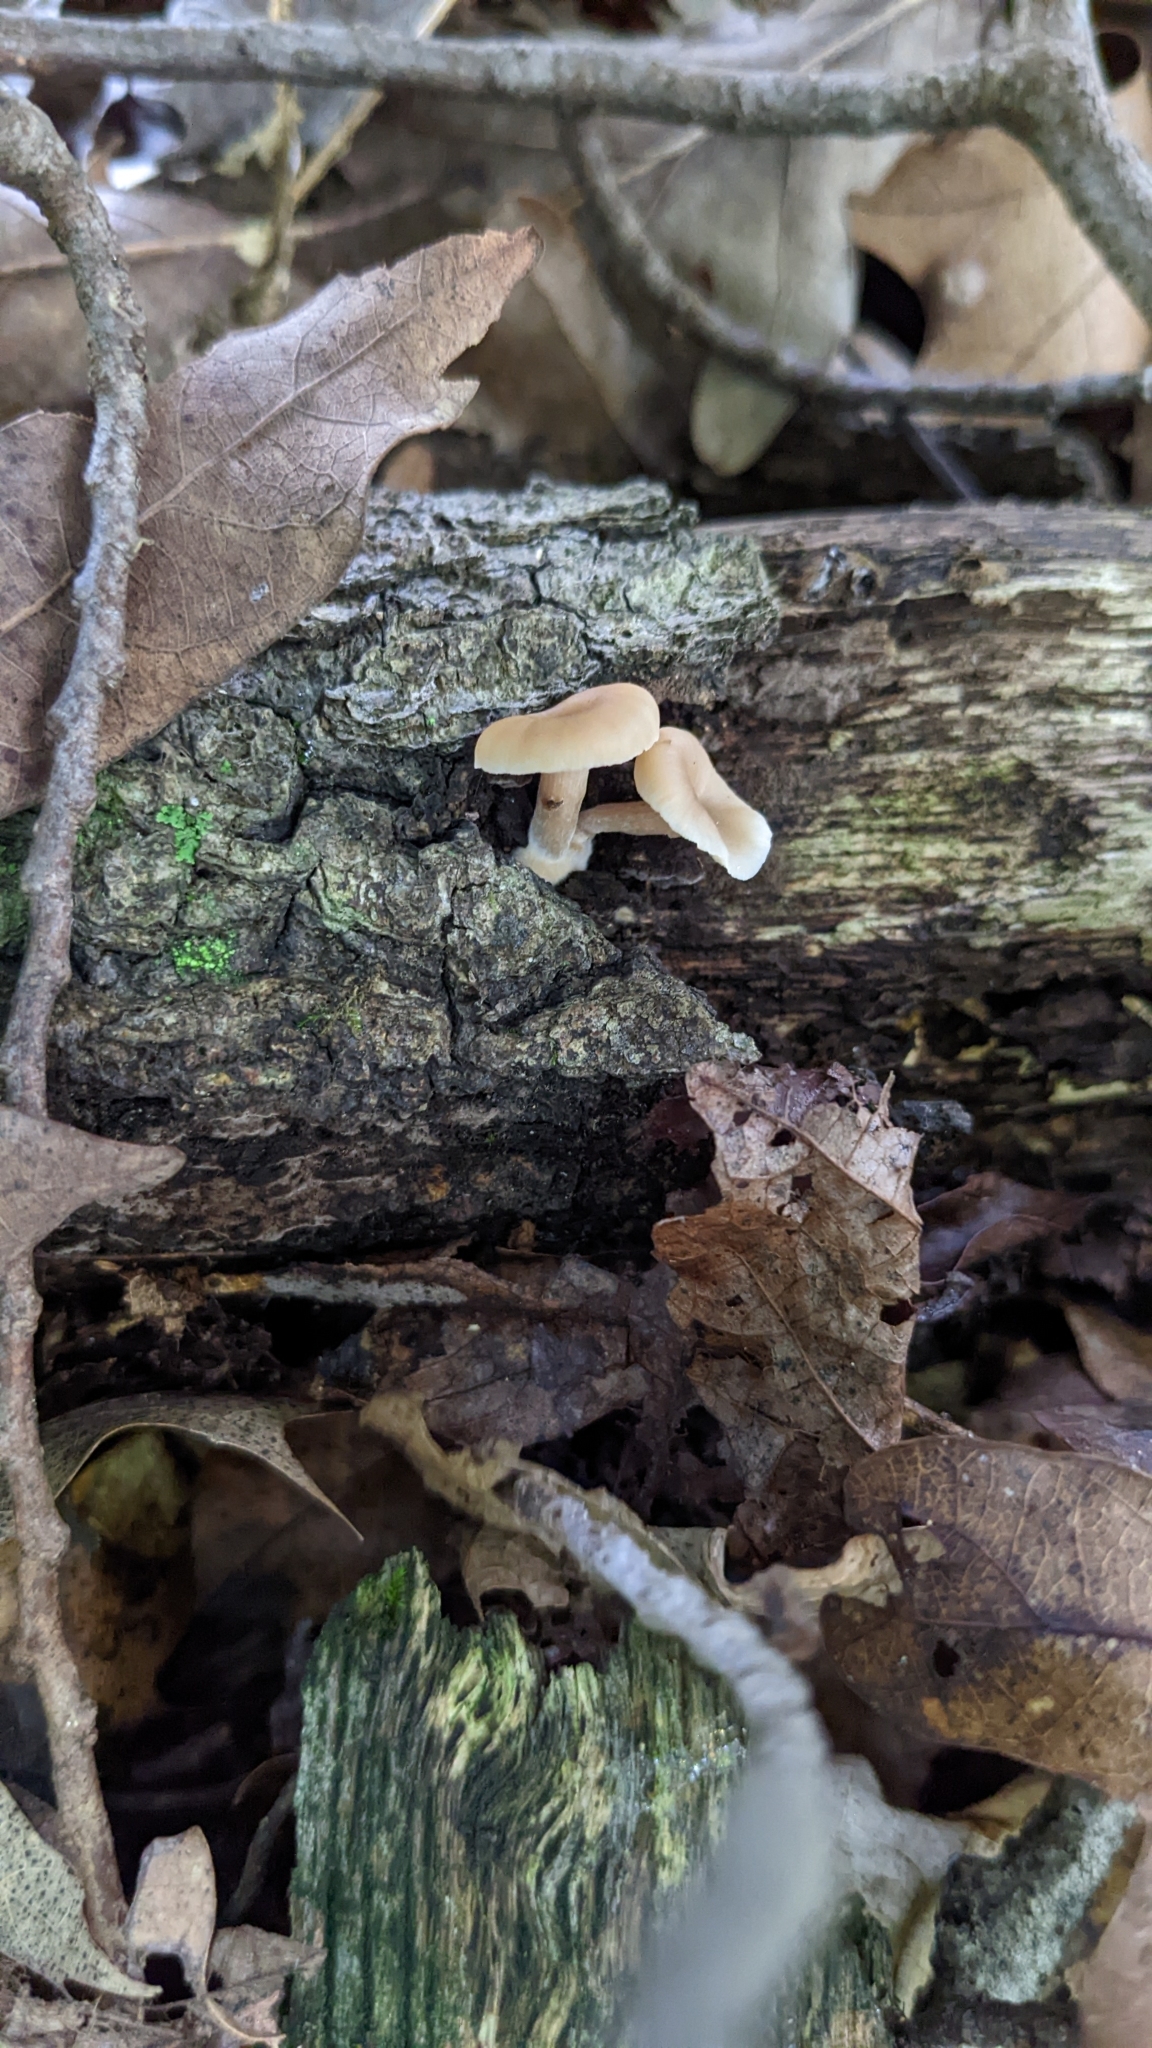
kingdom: Fungi
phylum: Basidiomycota
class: Agaricomycetes
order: Russulales
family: Auriscalpiaceae
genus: Lentinellus
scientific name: Lentinellus subaustralis
